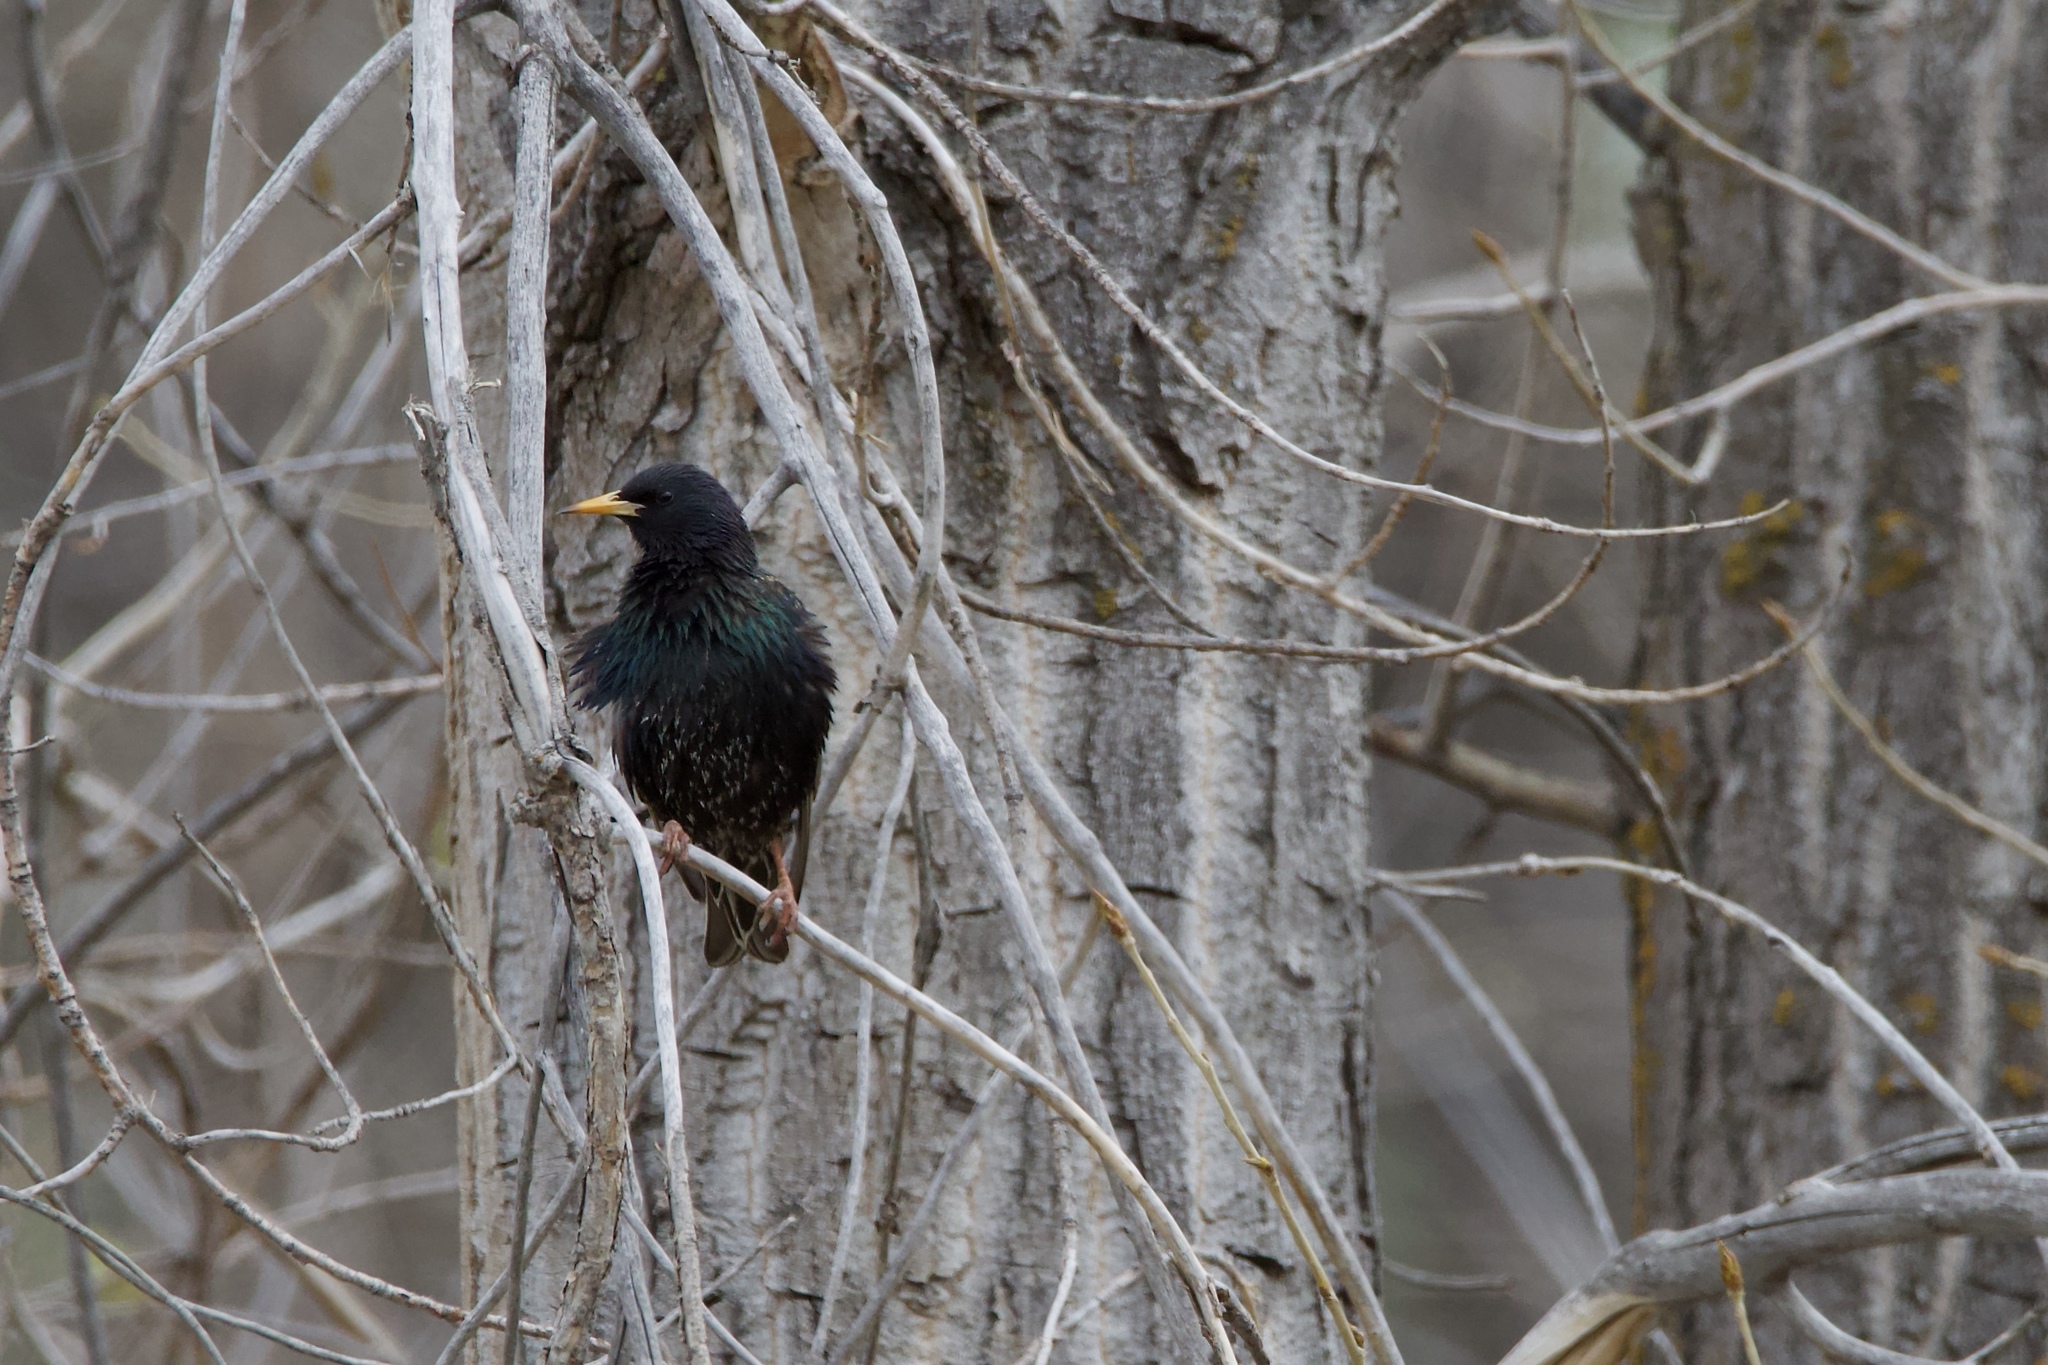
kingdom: Animalia
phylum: Chordata
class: Aves
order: Passeriformes
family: Sturnidae
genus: Sturnus
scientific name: Sturnus vulgaris
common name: Common starling
